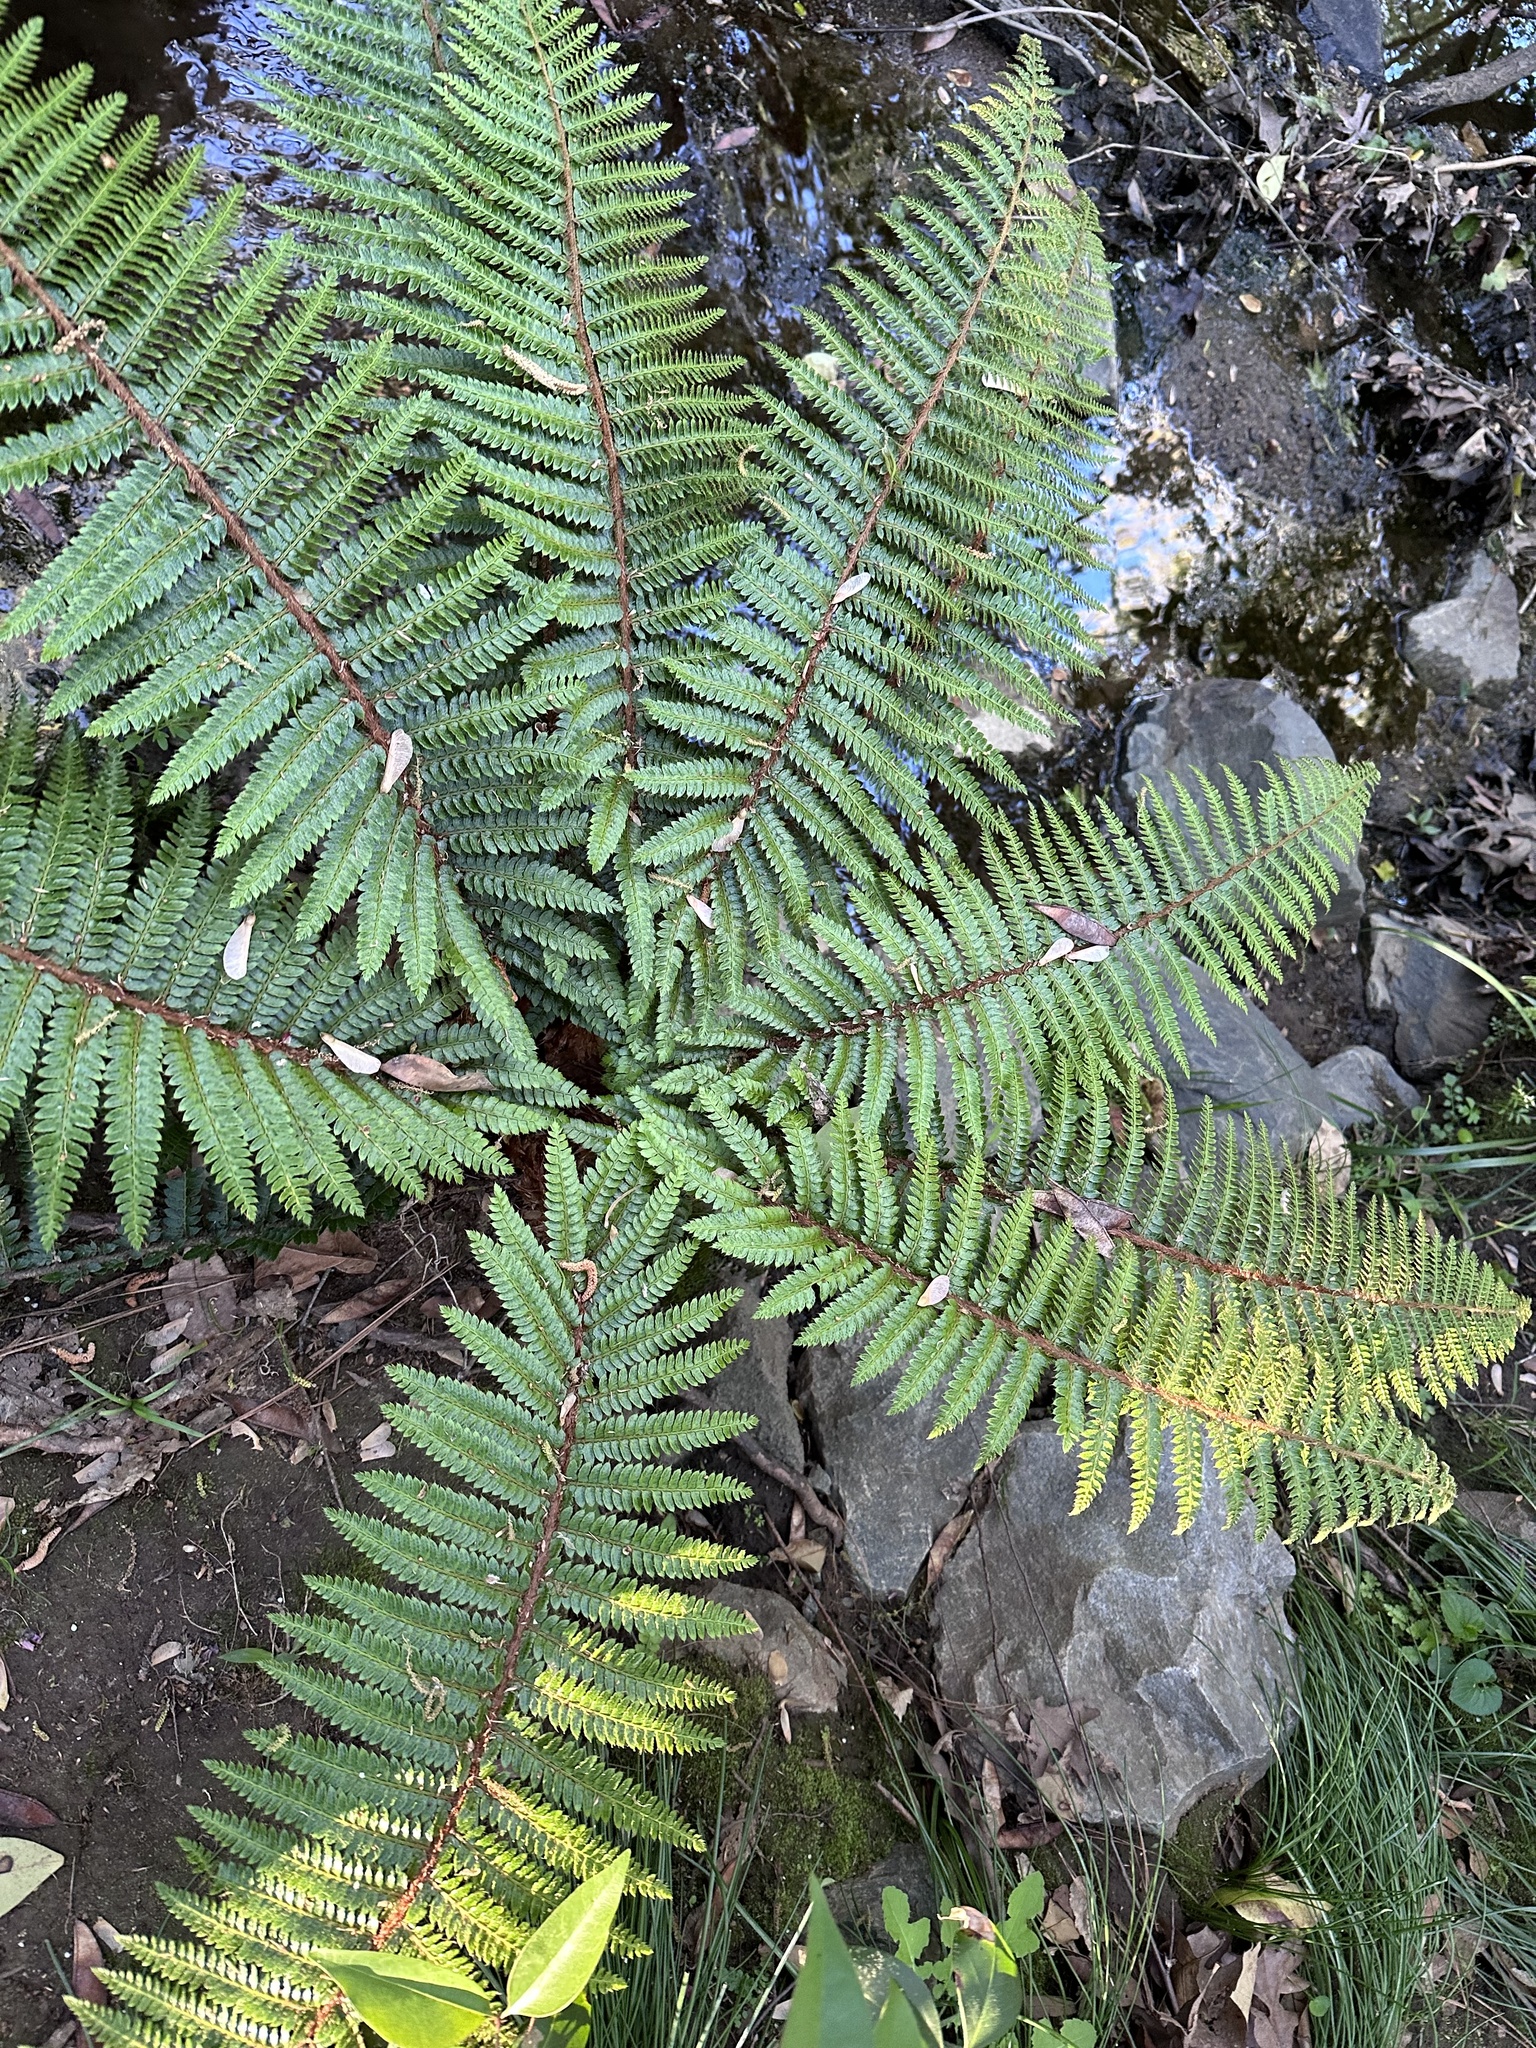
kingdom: Plantae
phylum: Tracheophyta
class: Polypodiopsida
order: Polypodiales
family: Dryopteridaceae
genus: Polystichum
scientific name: Polystichum luctuosum
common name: Korean rockfern
